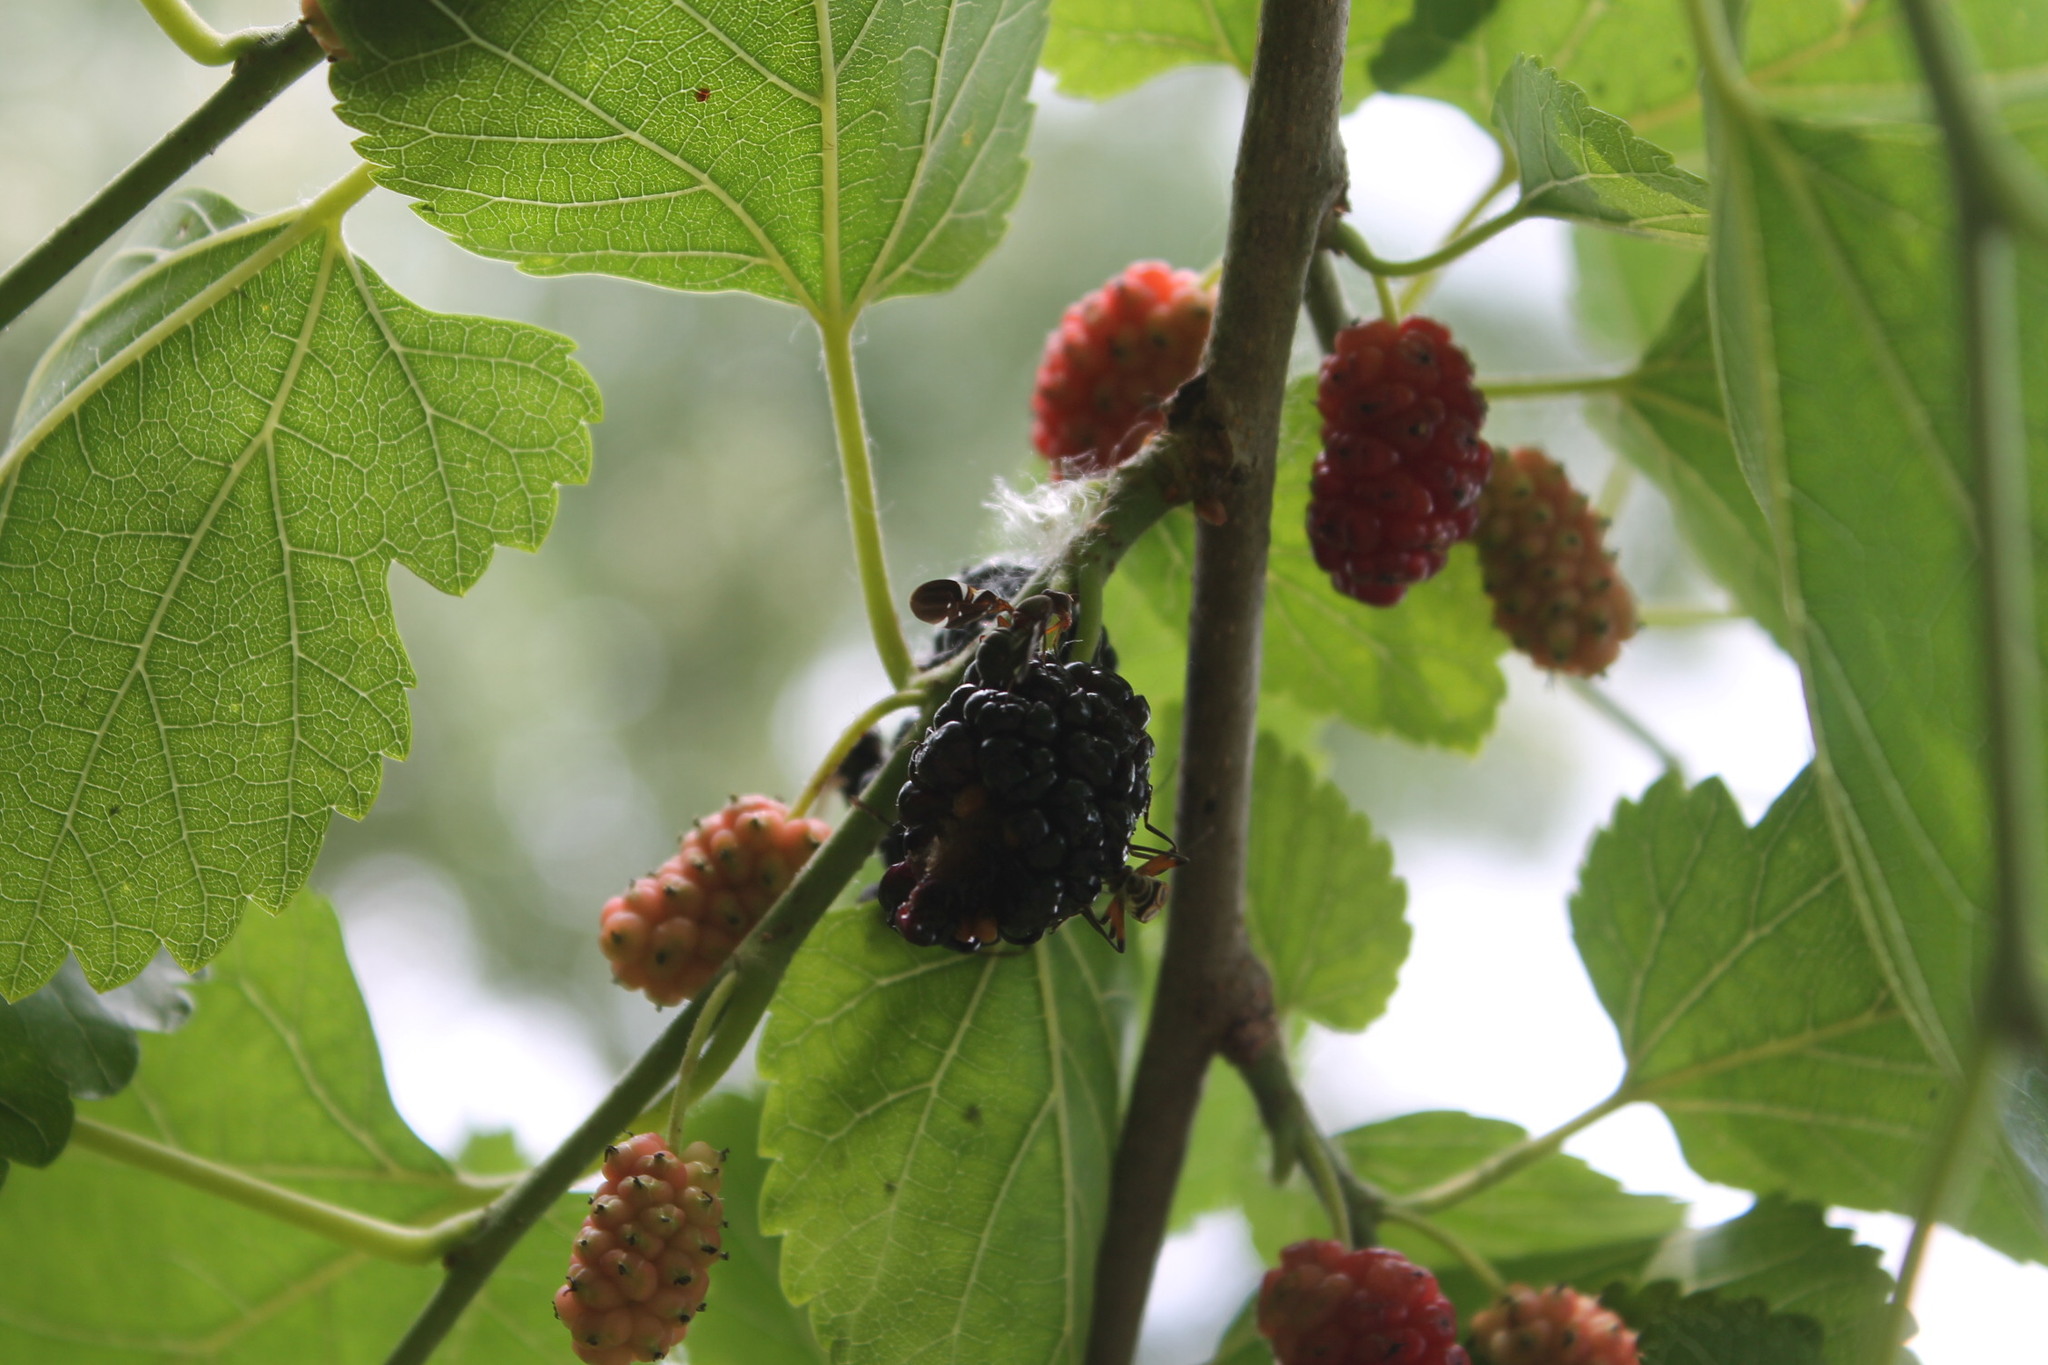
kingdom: Animalia
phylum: Arthropoda
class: Insecta
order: Diptera
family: Ulidiidae
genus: Delphinia
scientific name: Delphinia picta
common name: Common picture-winged fly
